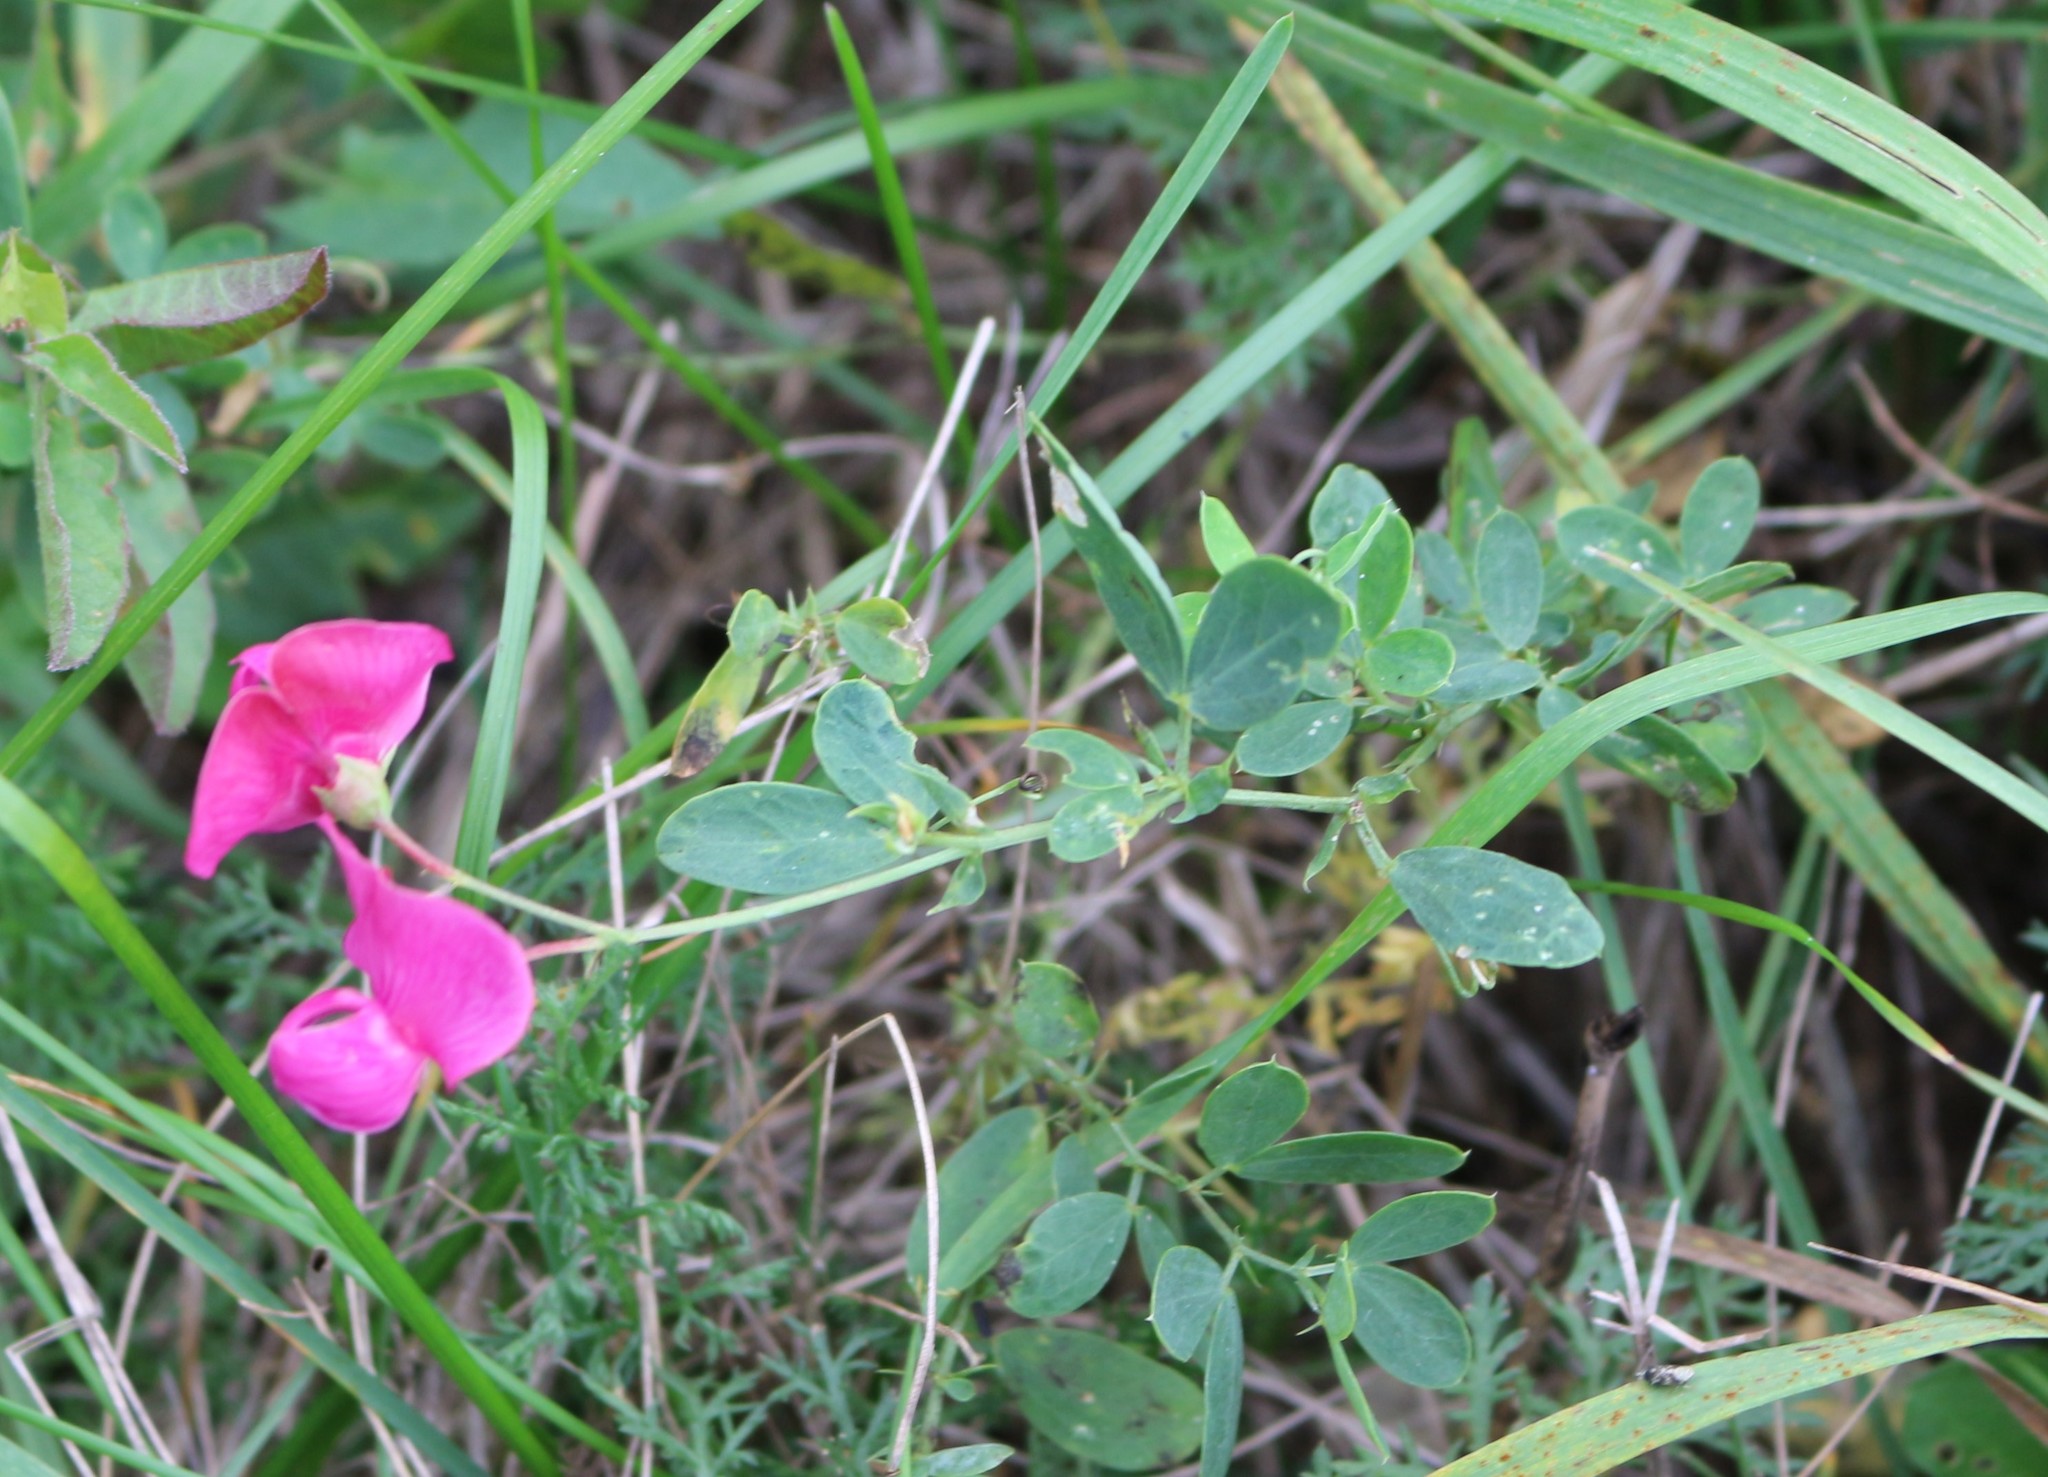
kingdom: Plantae
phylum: Tracheophyta
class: Magnoliopsida
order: Fabales
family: Fabaceae
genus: Lathyrus
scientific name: Lathyrus tuberosus
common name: Tuberous pea
